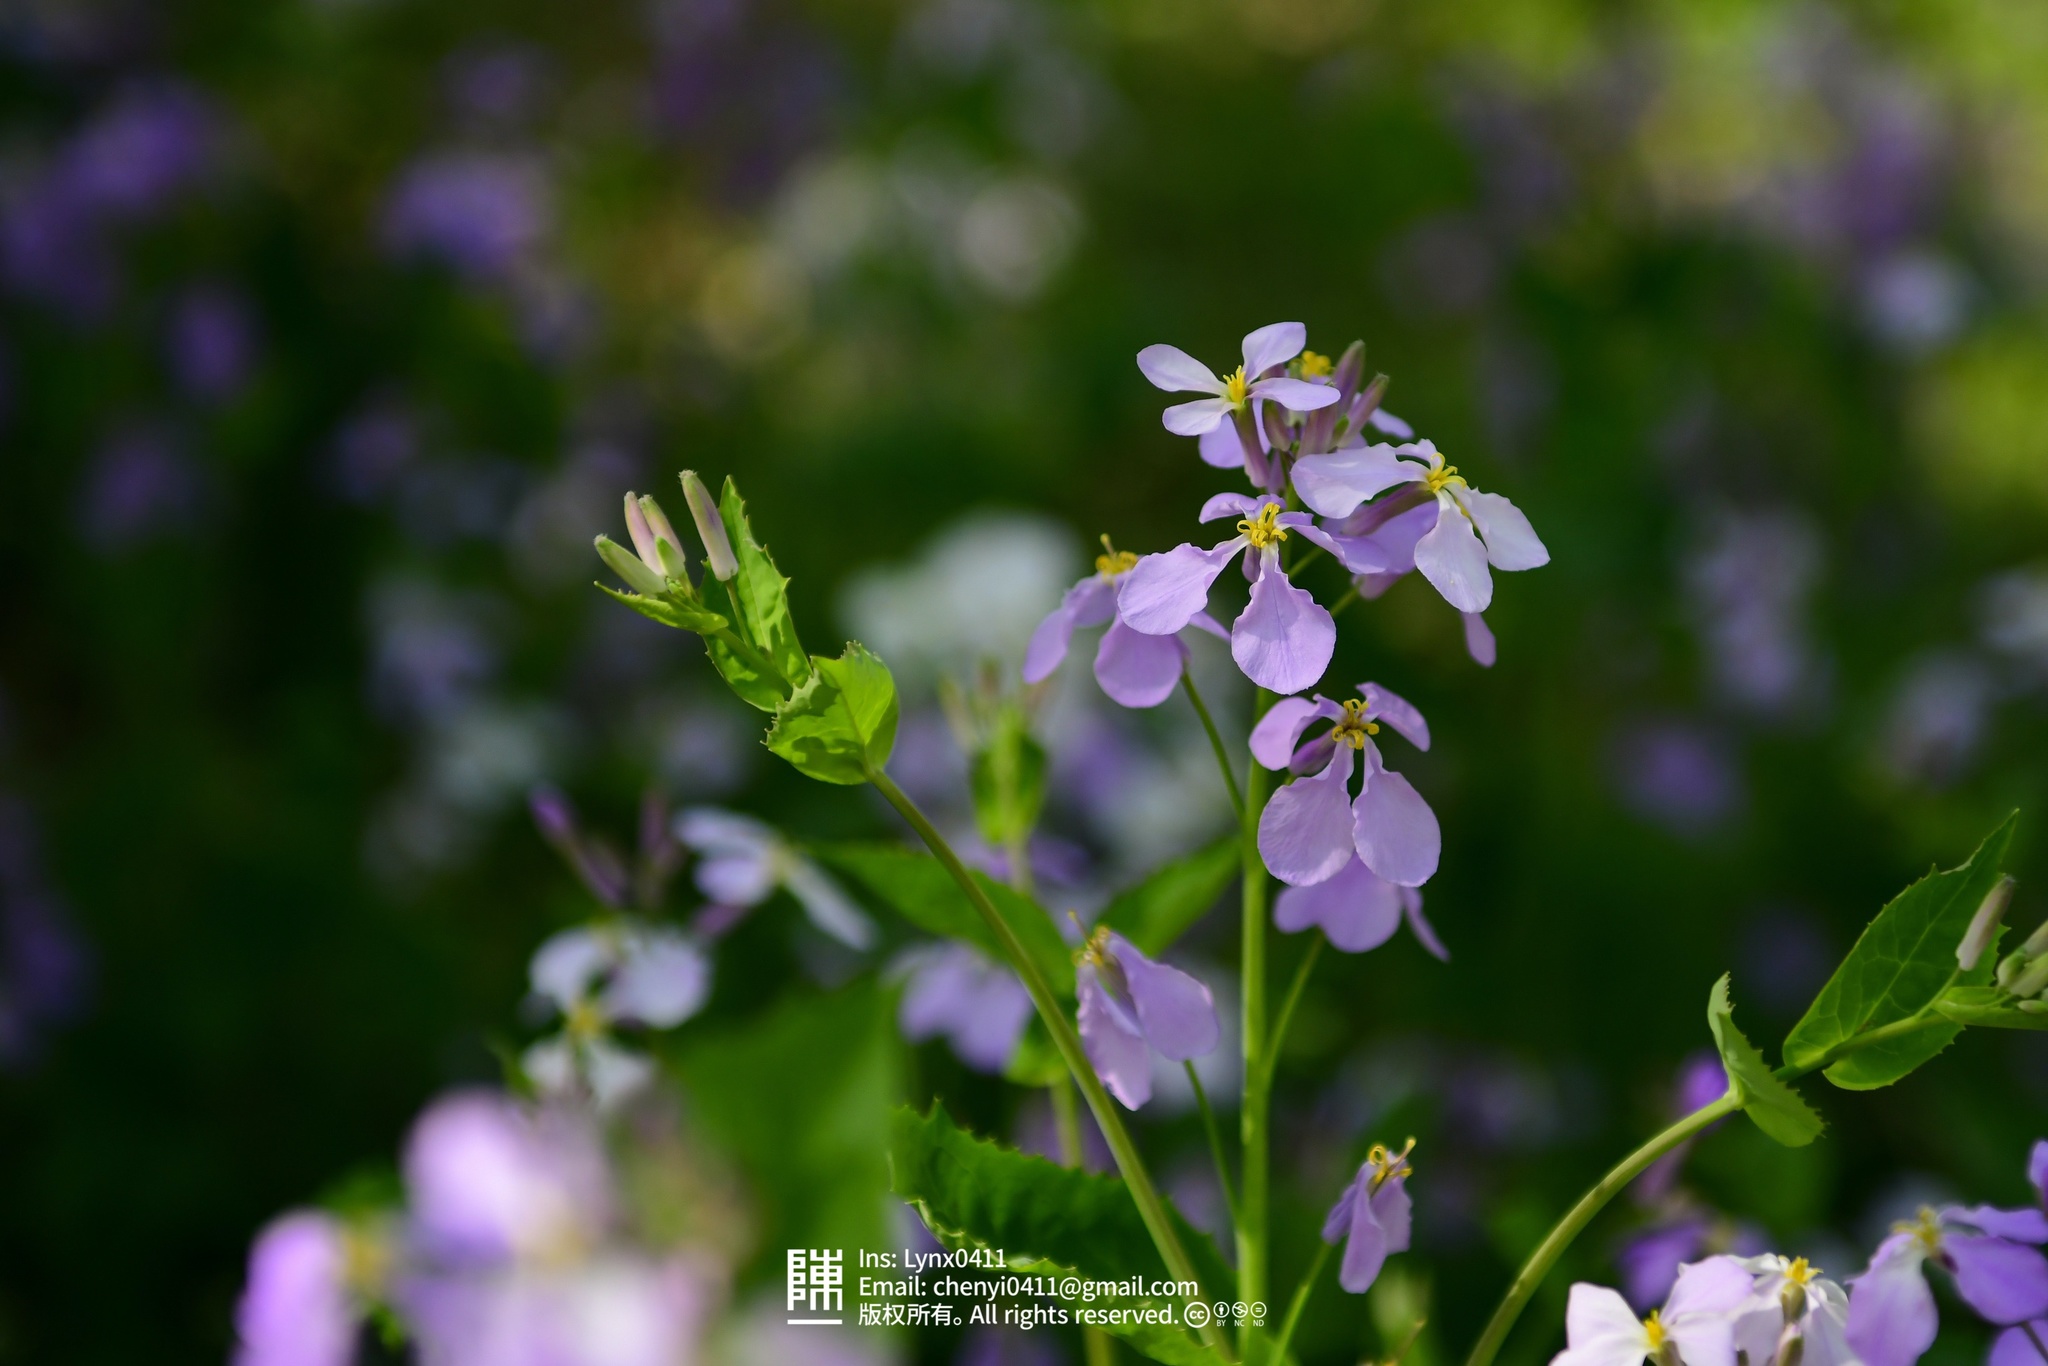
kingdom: Plantae
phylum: Tracheophyta
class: Magnoliopsida
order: Brassicales
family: Brassicaceae
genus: Orychophragmus
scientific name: Orychophragmus violaceus
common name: Mustard
